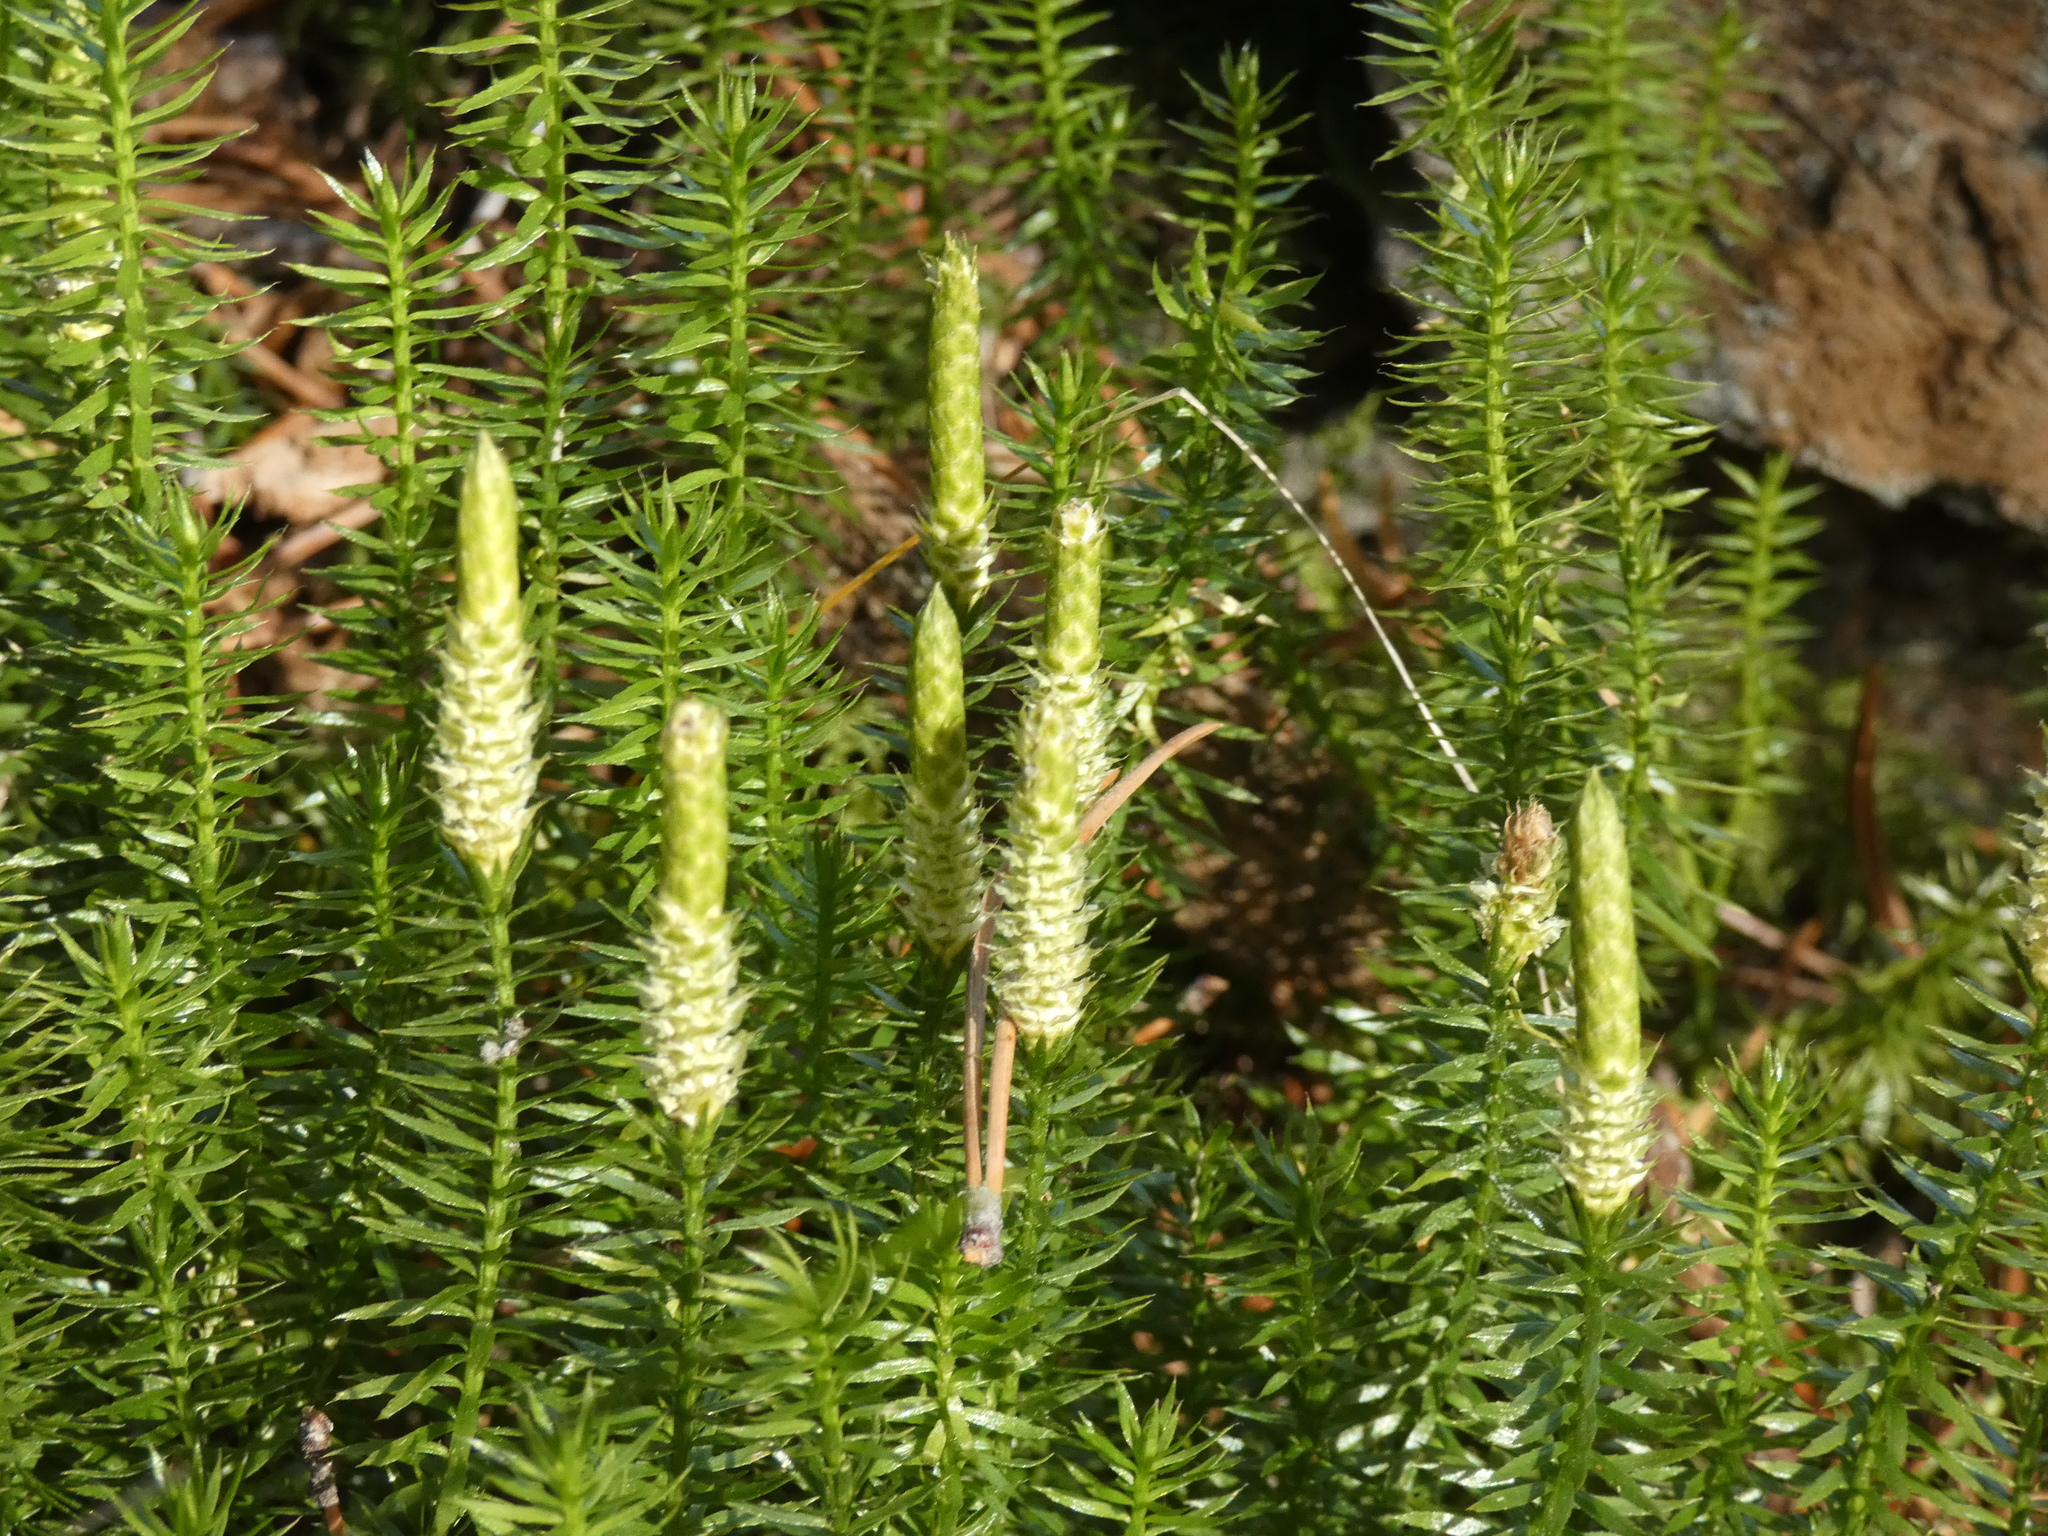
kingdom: Plantae
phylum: Tracheophyta
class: Lycopodiopsida
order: Lycopodiales
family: Lycopodiaceae
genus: Spinulum
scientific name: Spinulum annotinum
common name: Interrupted club-moss
